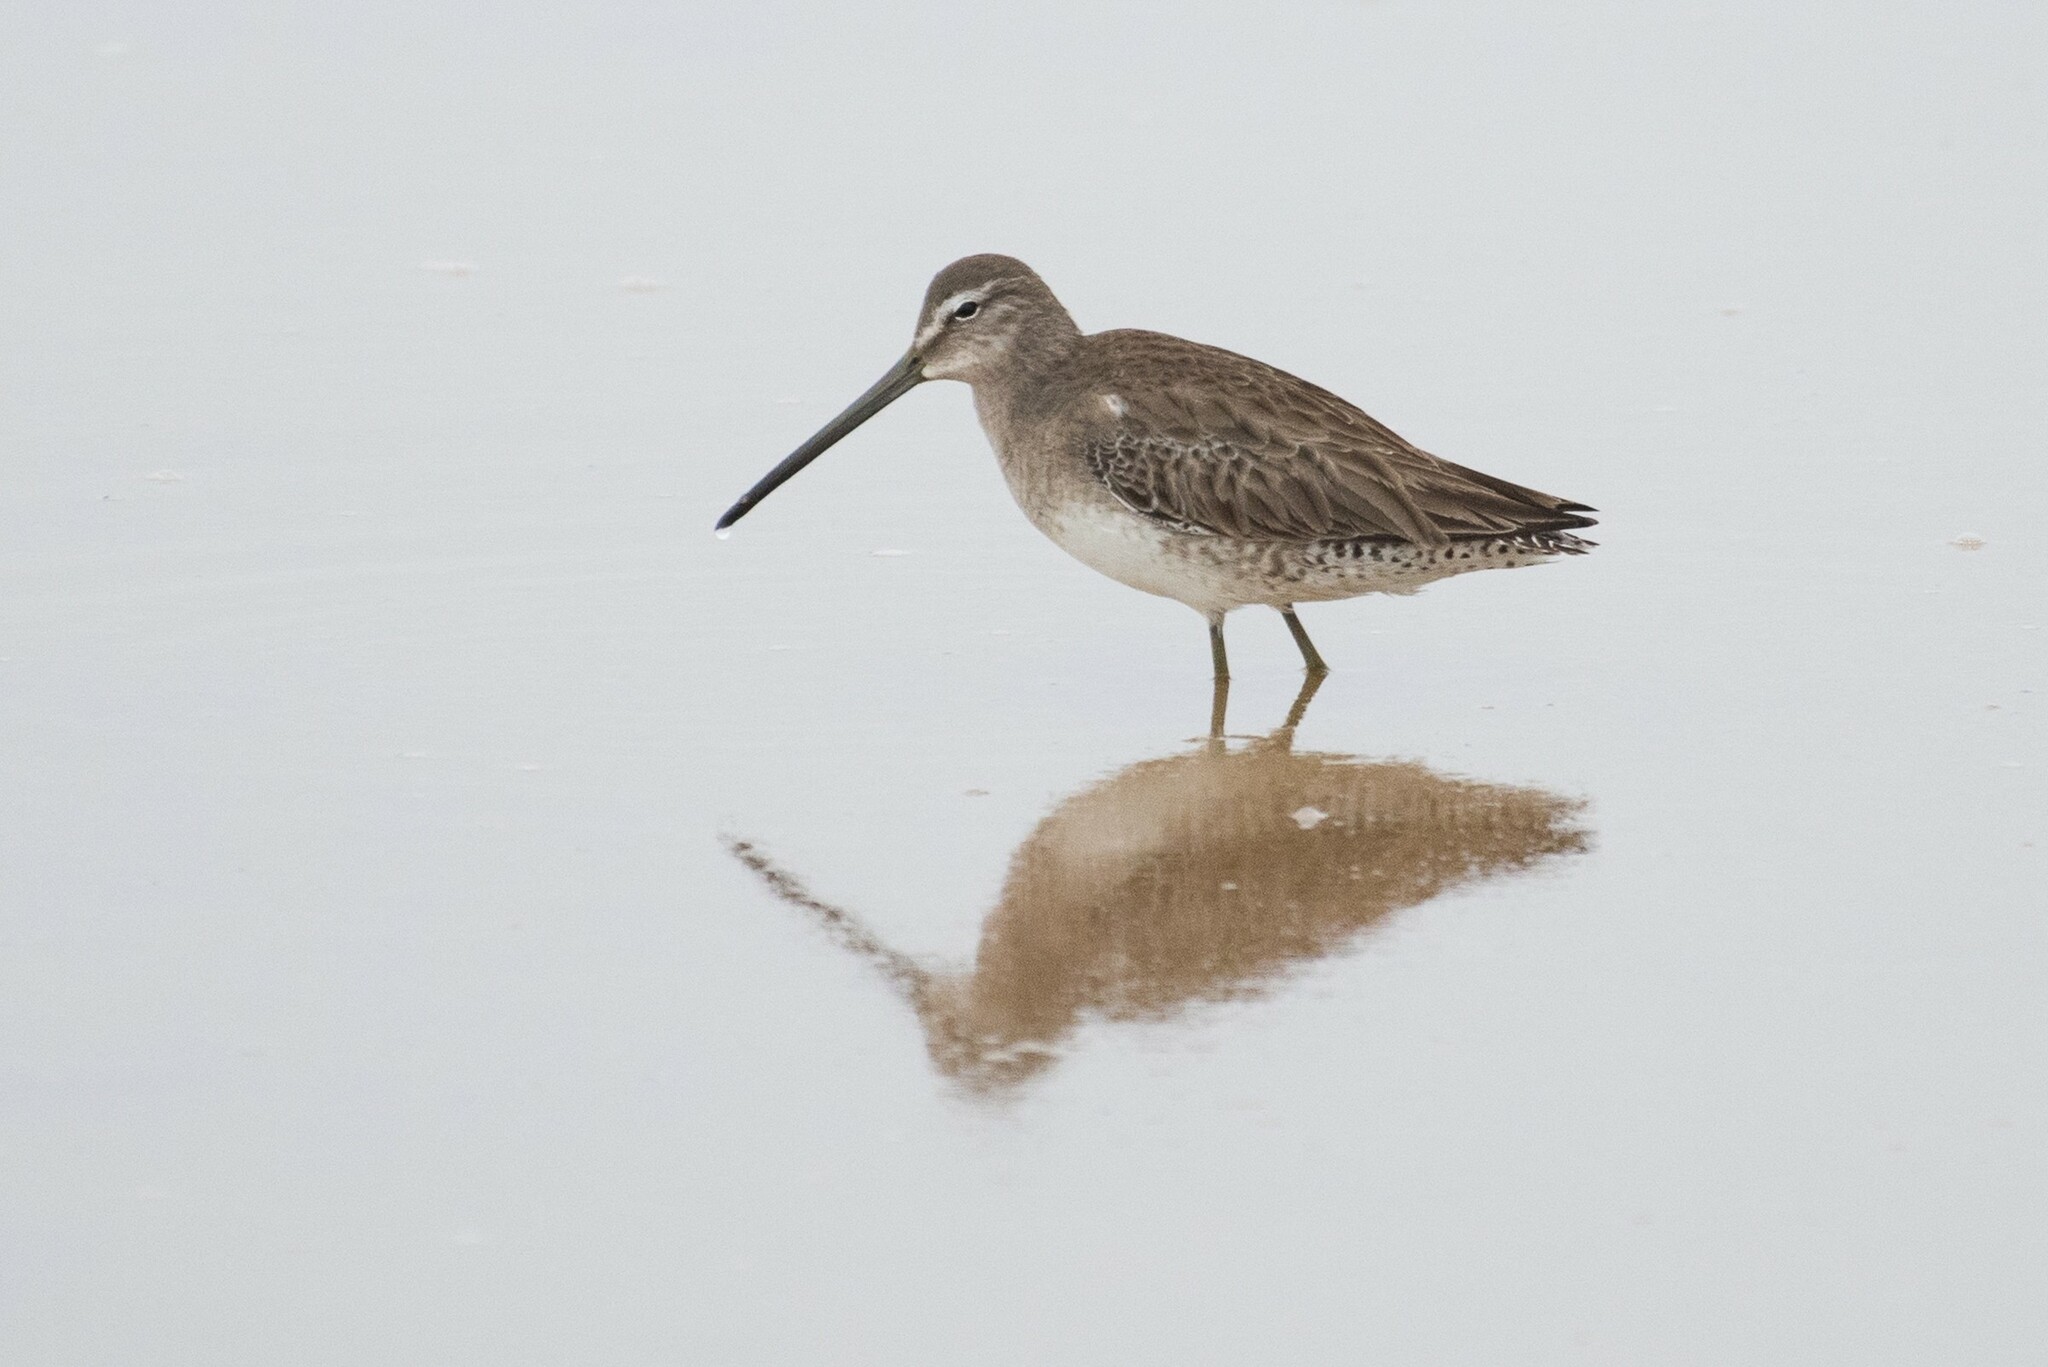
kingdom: Animalia
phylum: Chordata
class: Aves
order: Charadriiformes
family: Scolopacidae
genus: Limnodromus
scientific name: Limnodromus scolopaceus
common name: Long-billed dowitcher
